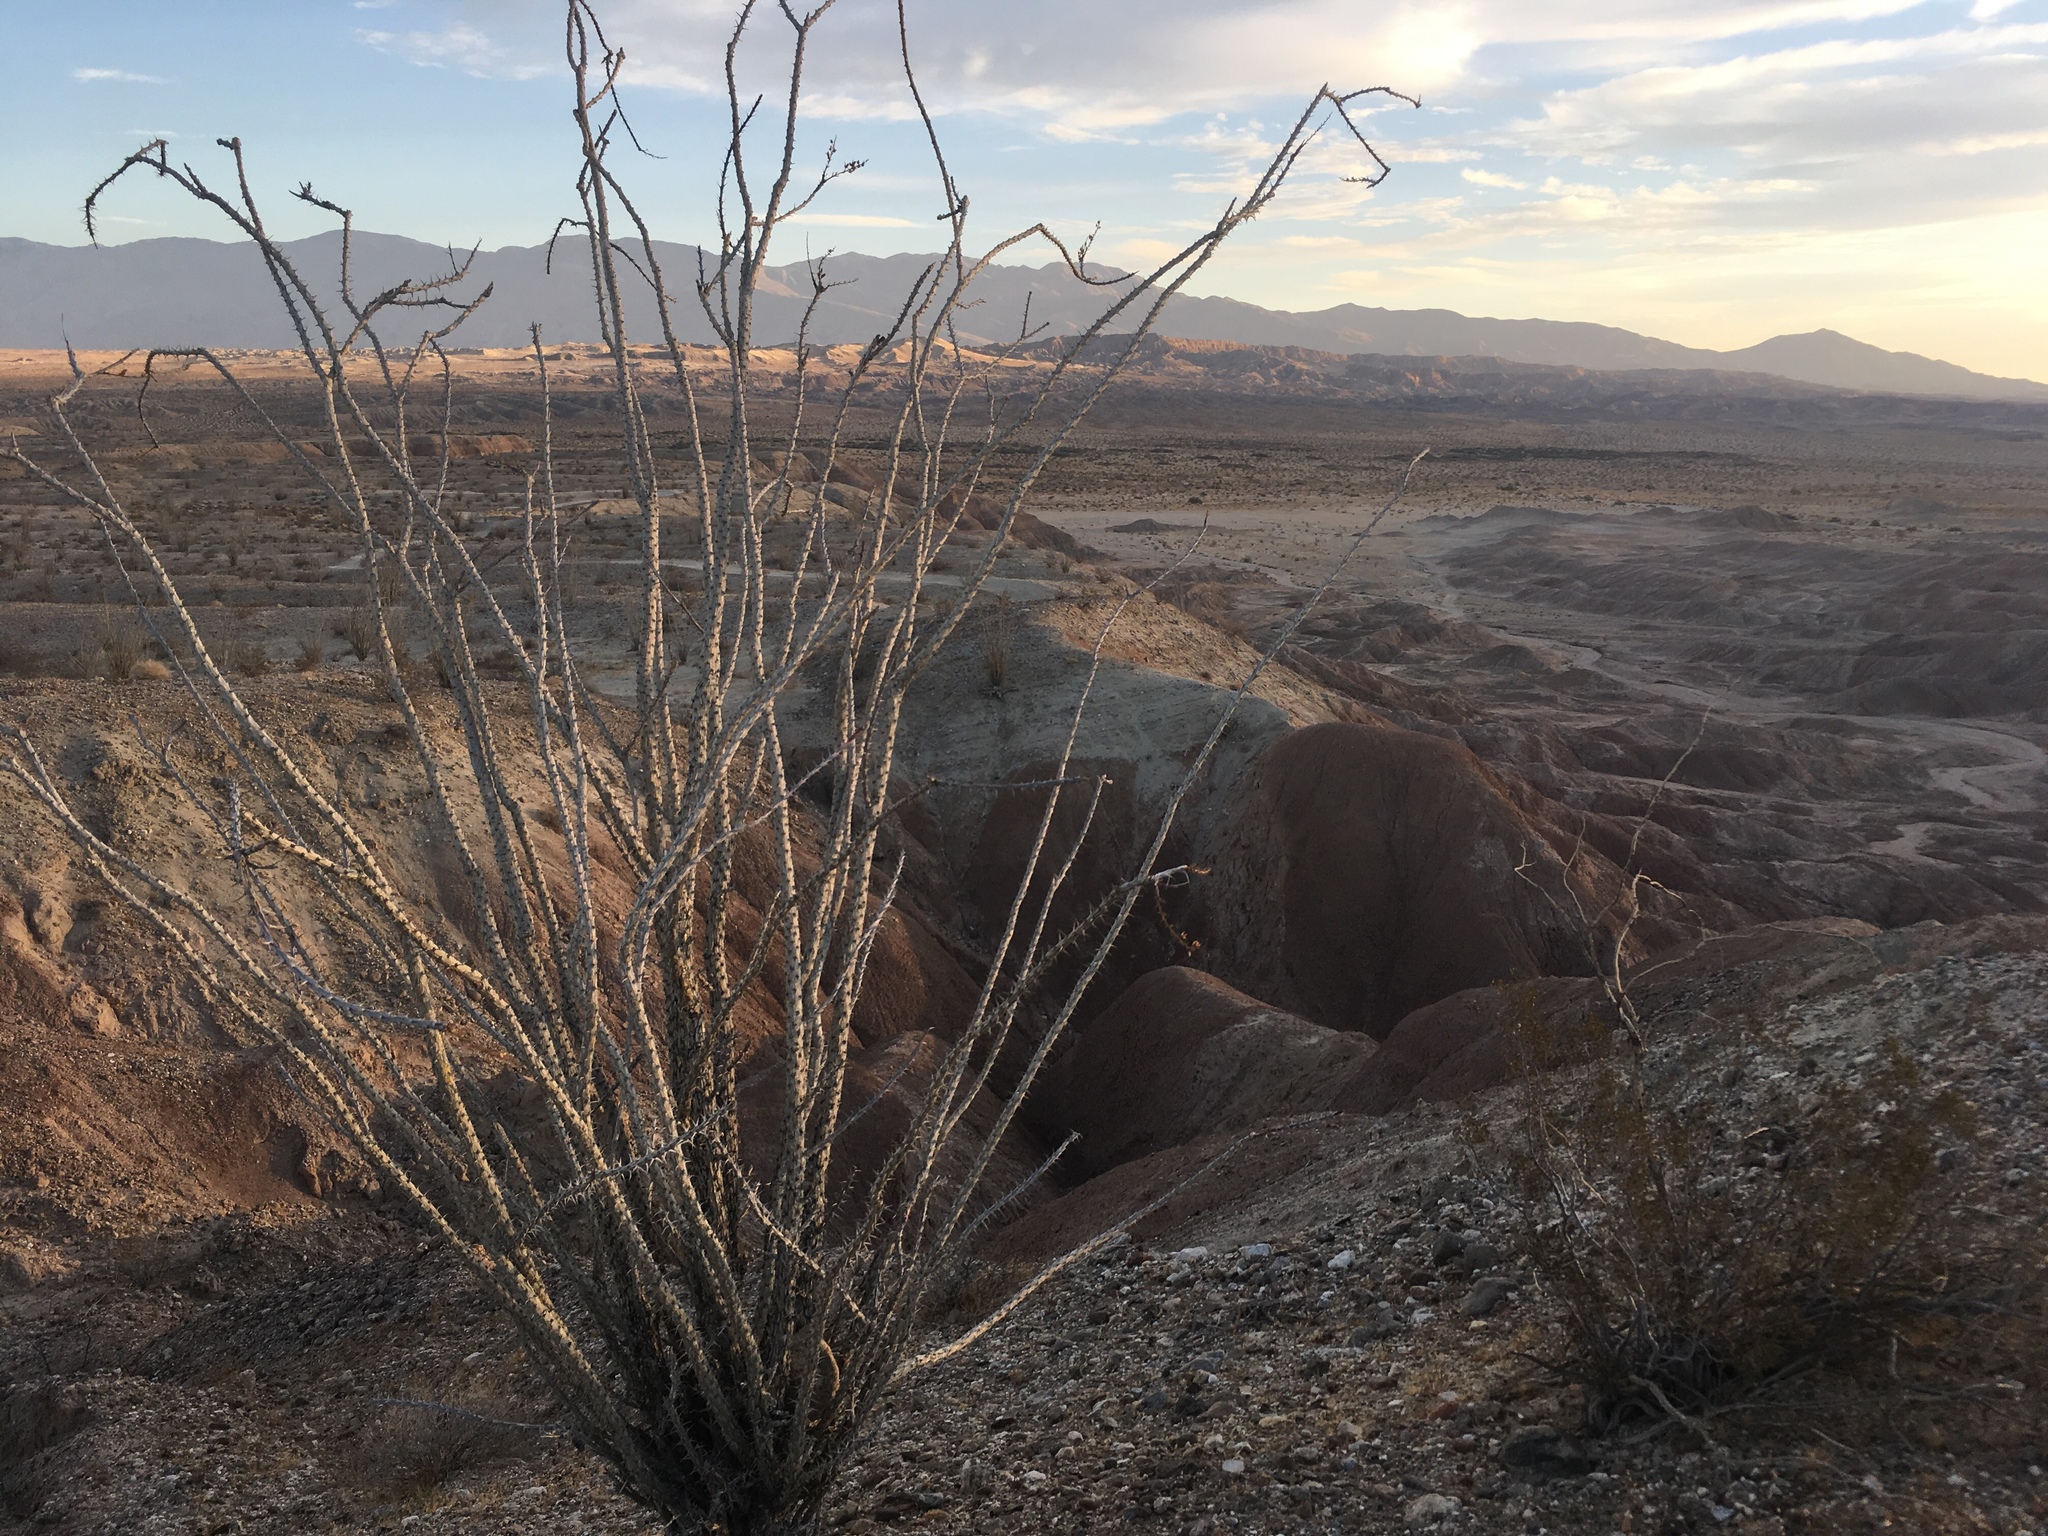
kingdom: Plantae
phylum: Tracheophyta
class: Magnoliopsida
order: Ericales
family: Fouquieriaceae
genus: Fouquieria
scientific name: Fouquieria splendens
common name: Vine-cactus
